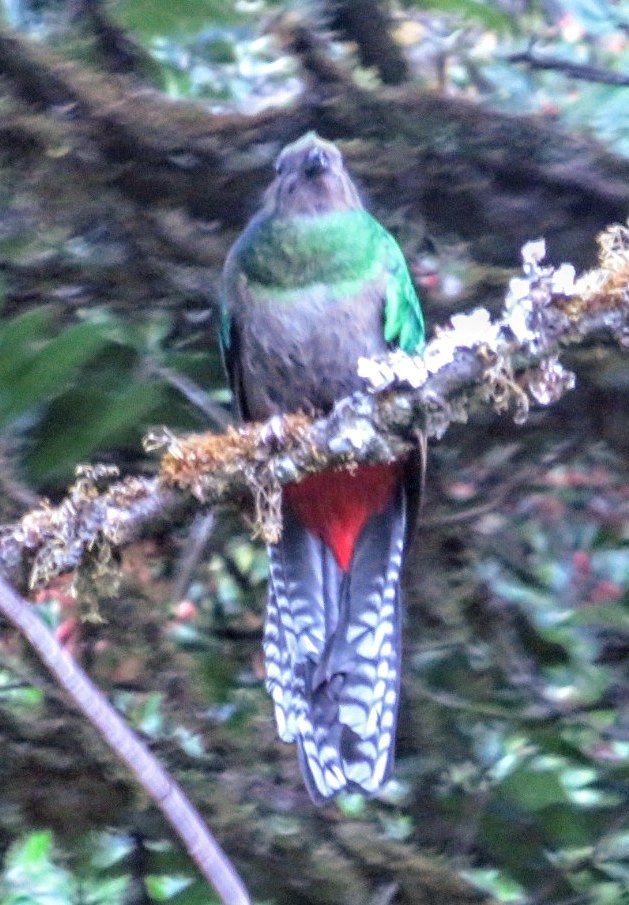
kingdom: Animalia
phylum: Chordata
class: Aves
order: Trogoniformes
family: Trogonidae
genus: Pharomachrus
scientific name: Pharomachrus mocinno
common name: Resplendent quetzal
